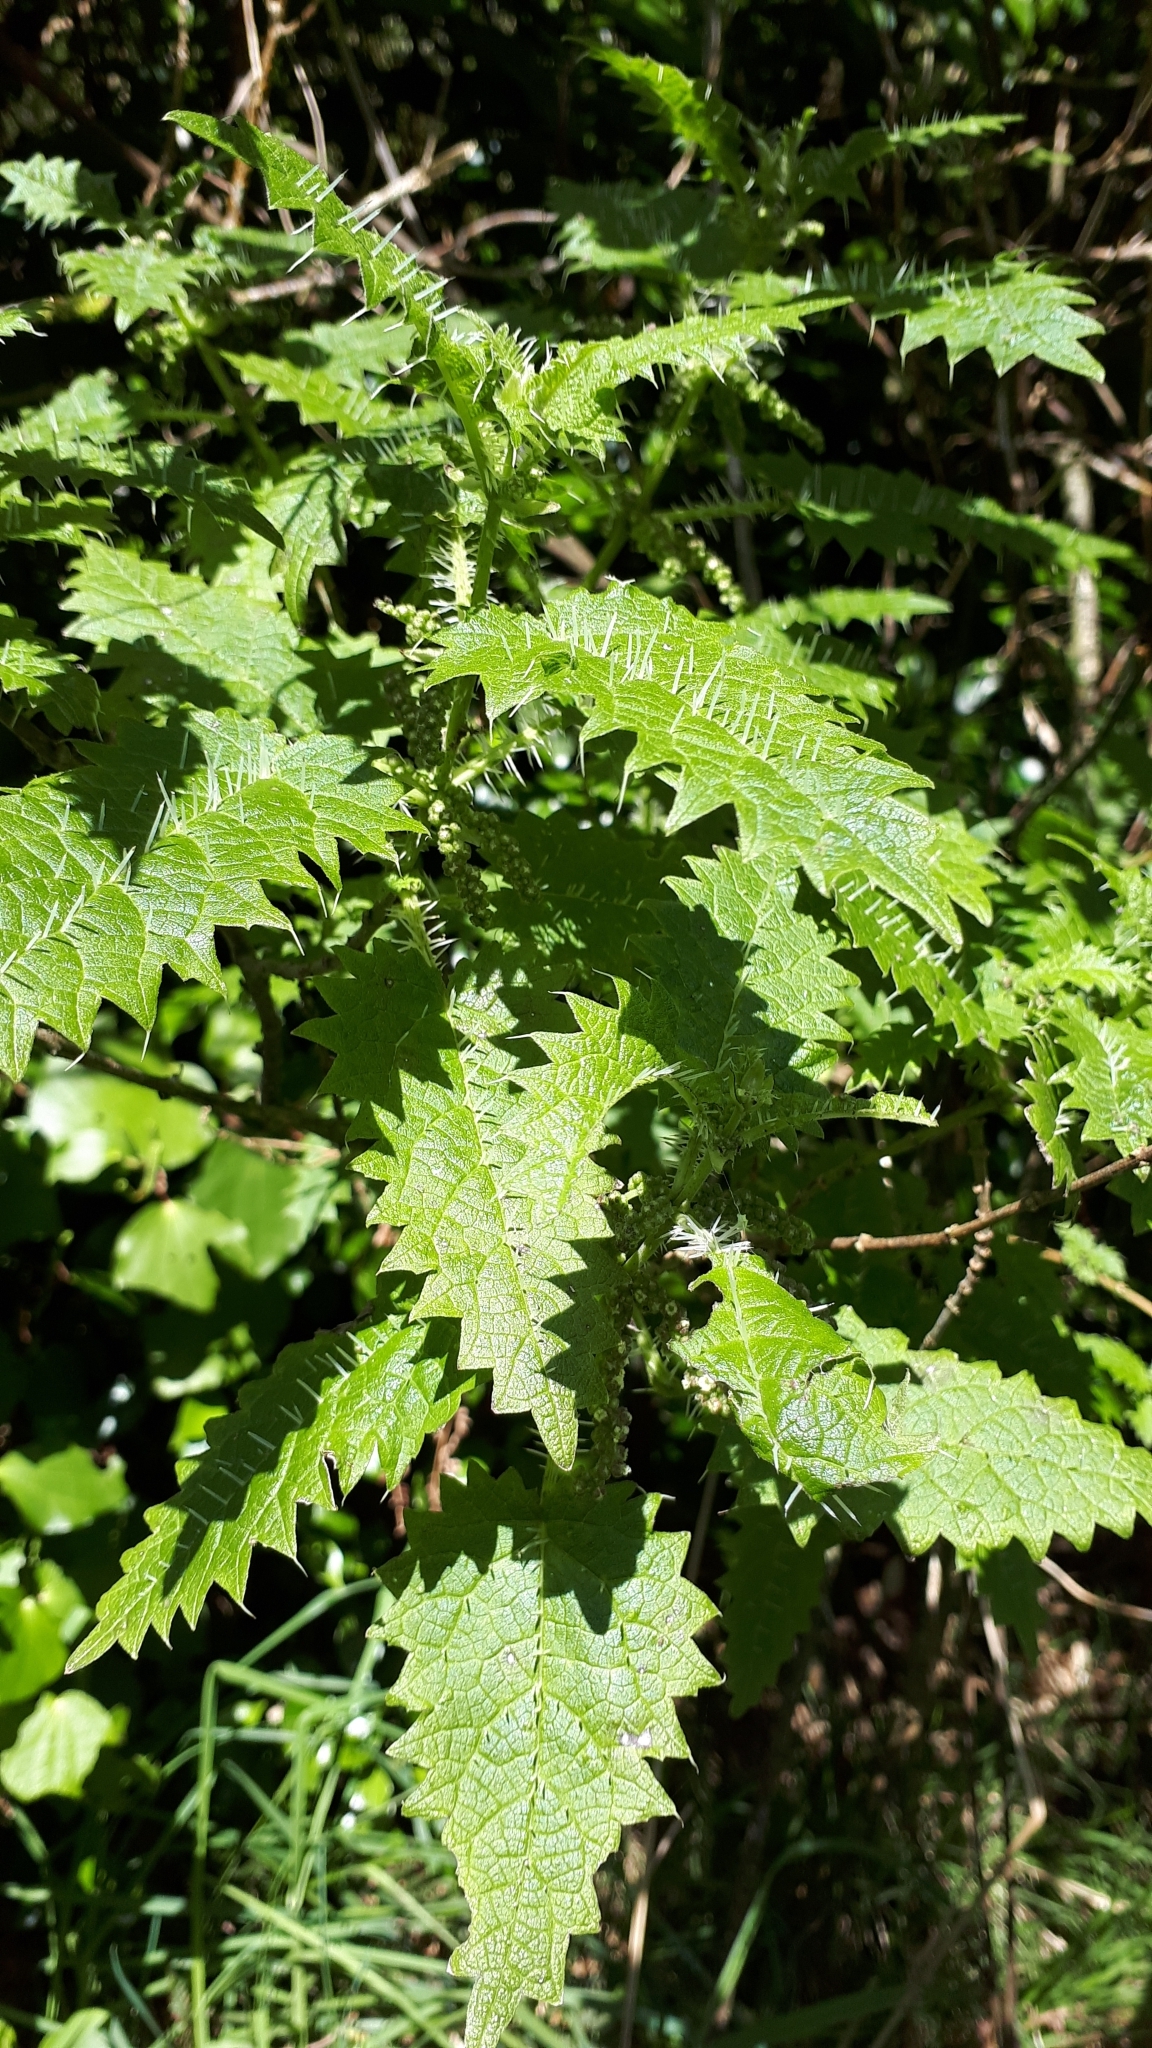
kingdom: Plantae
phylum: Tracheophyta
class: Magnoliopsida
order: Rosales
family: Urticaceae
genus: Urtica
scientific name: Urtica ferox
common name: Tree nettle
